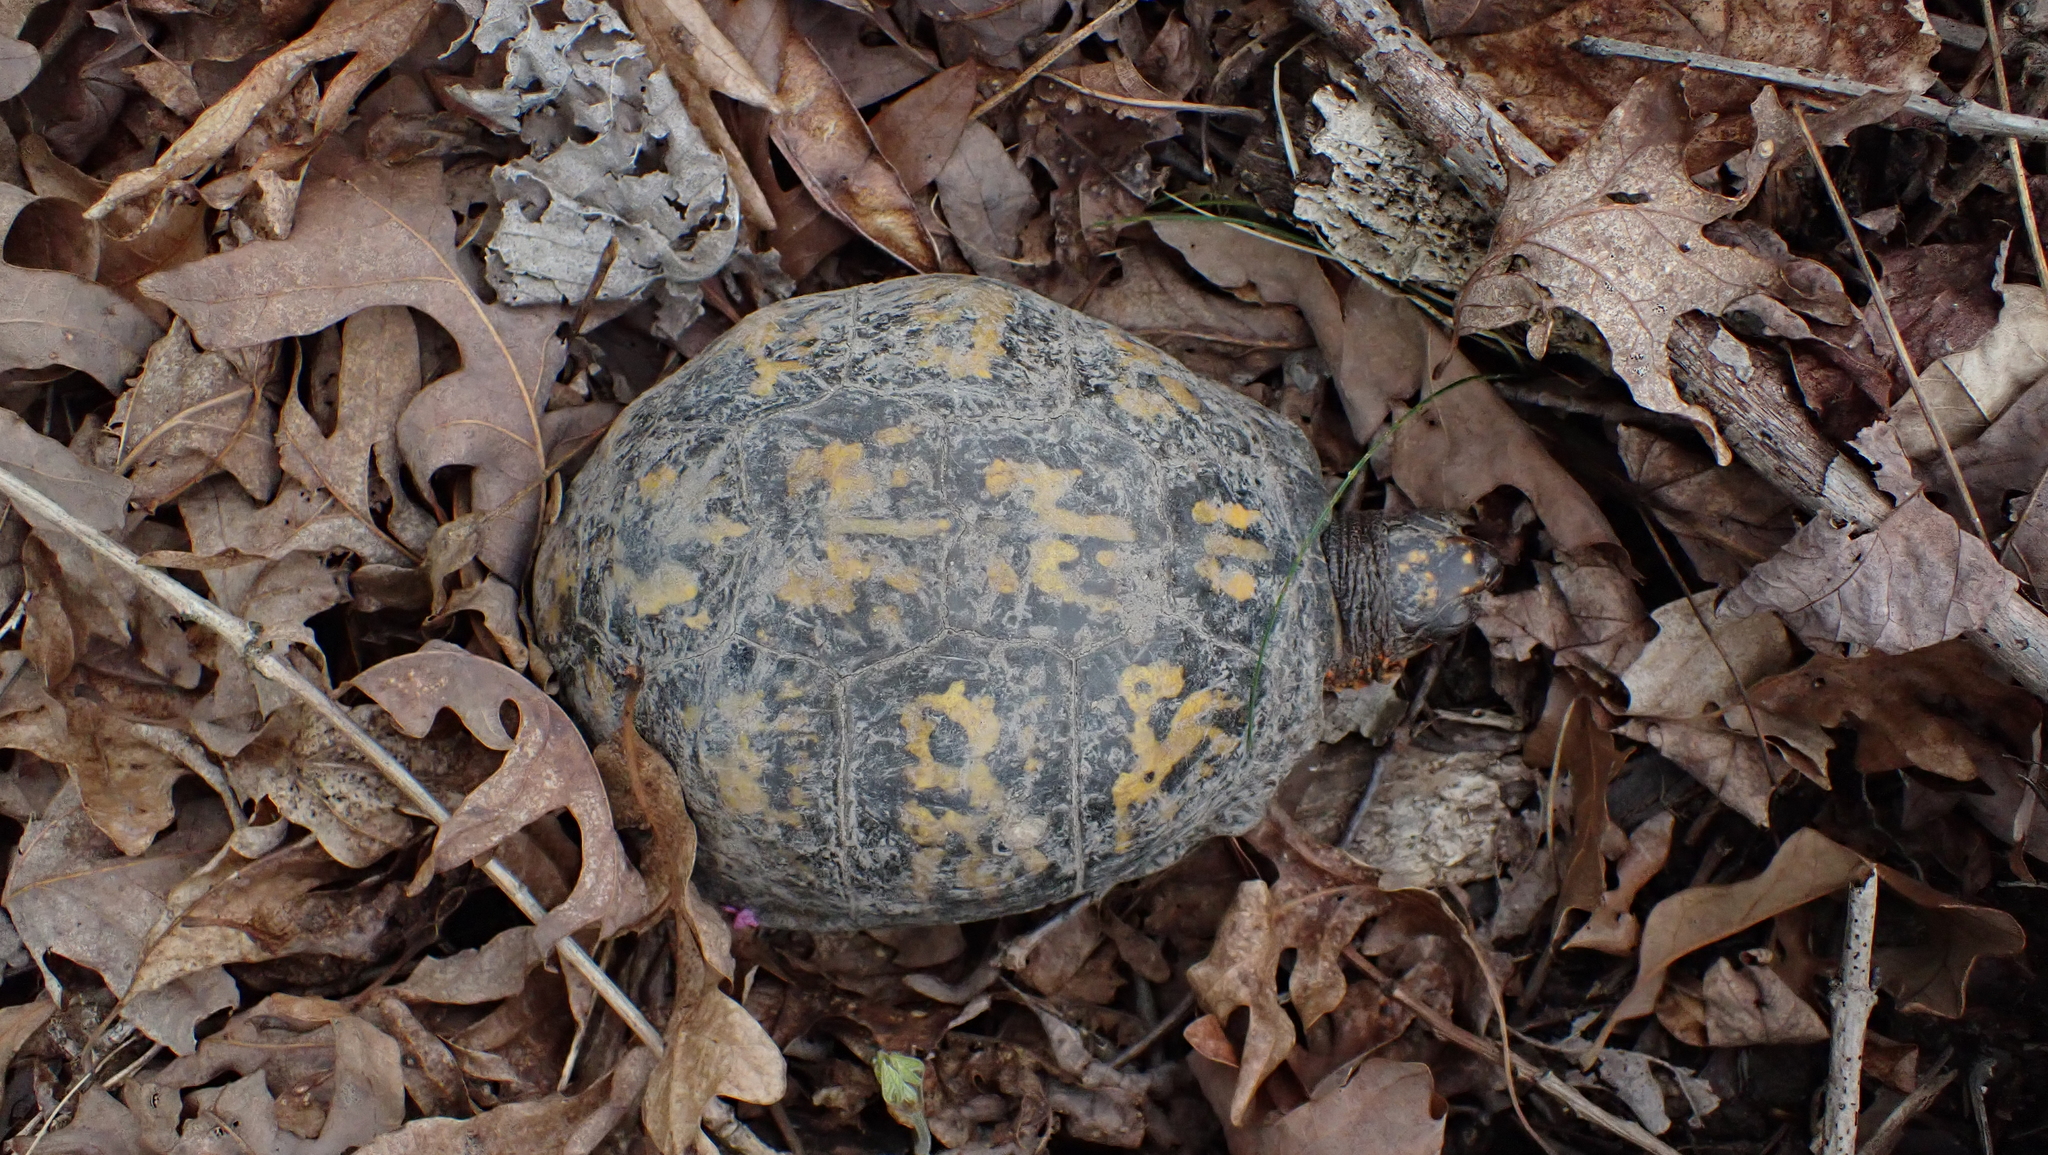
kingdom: Animalia
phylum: Chordata
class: Testudines
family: Emydidae
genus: Terrapene
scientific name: Terrapene carolina
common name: Common box turtle
